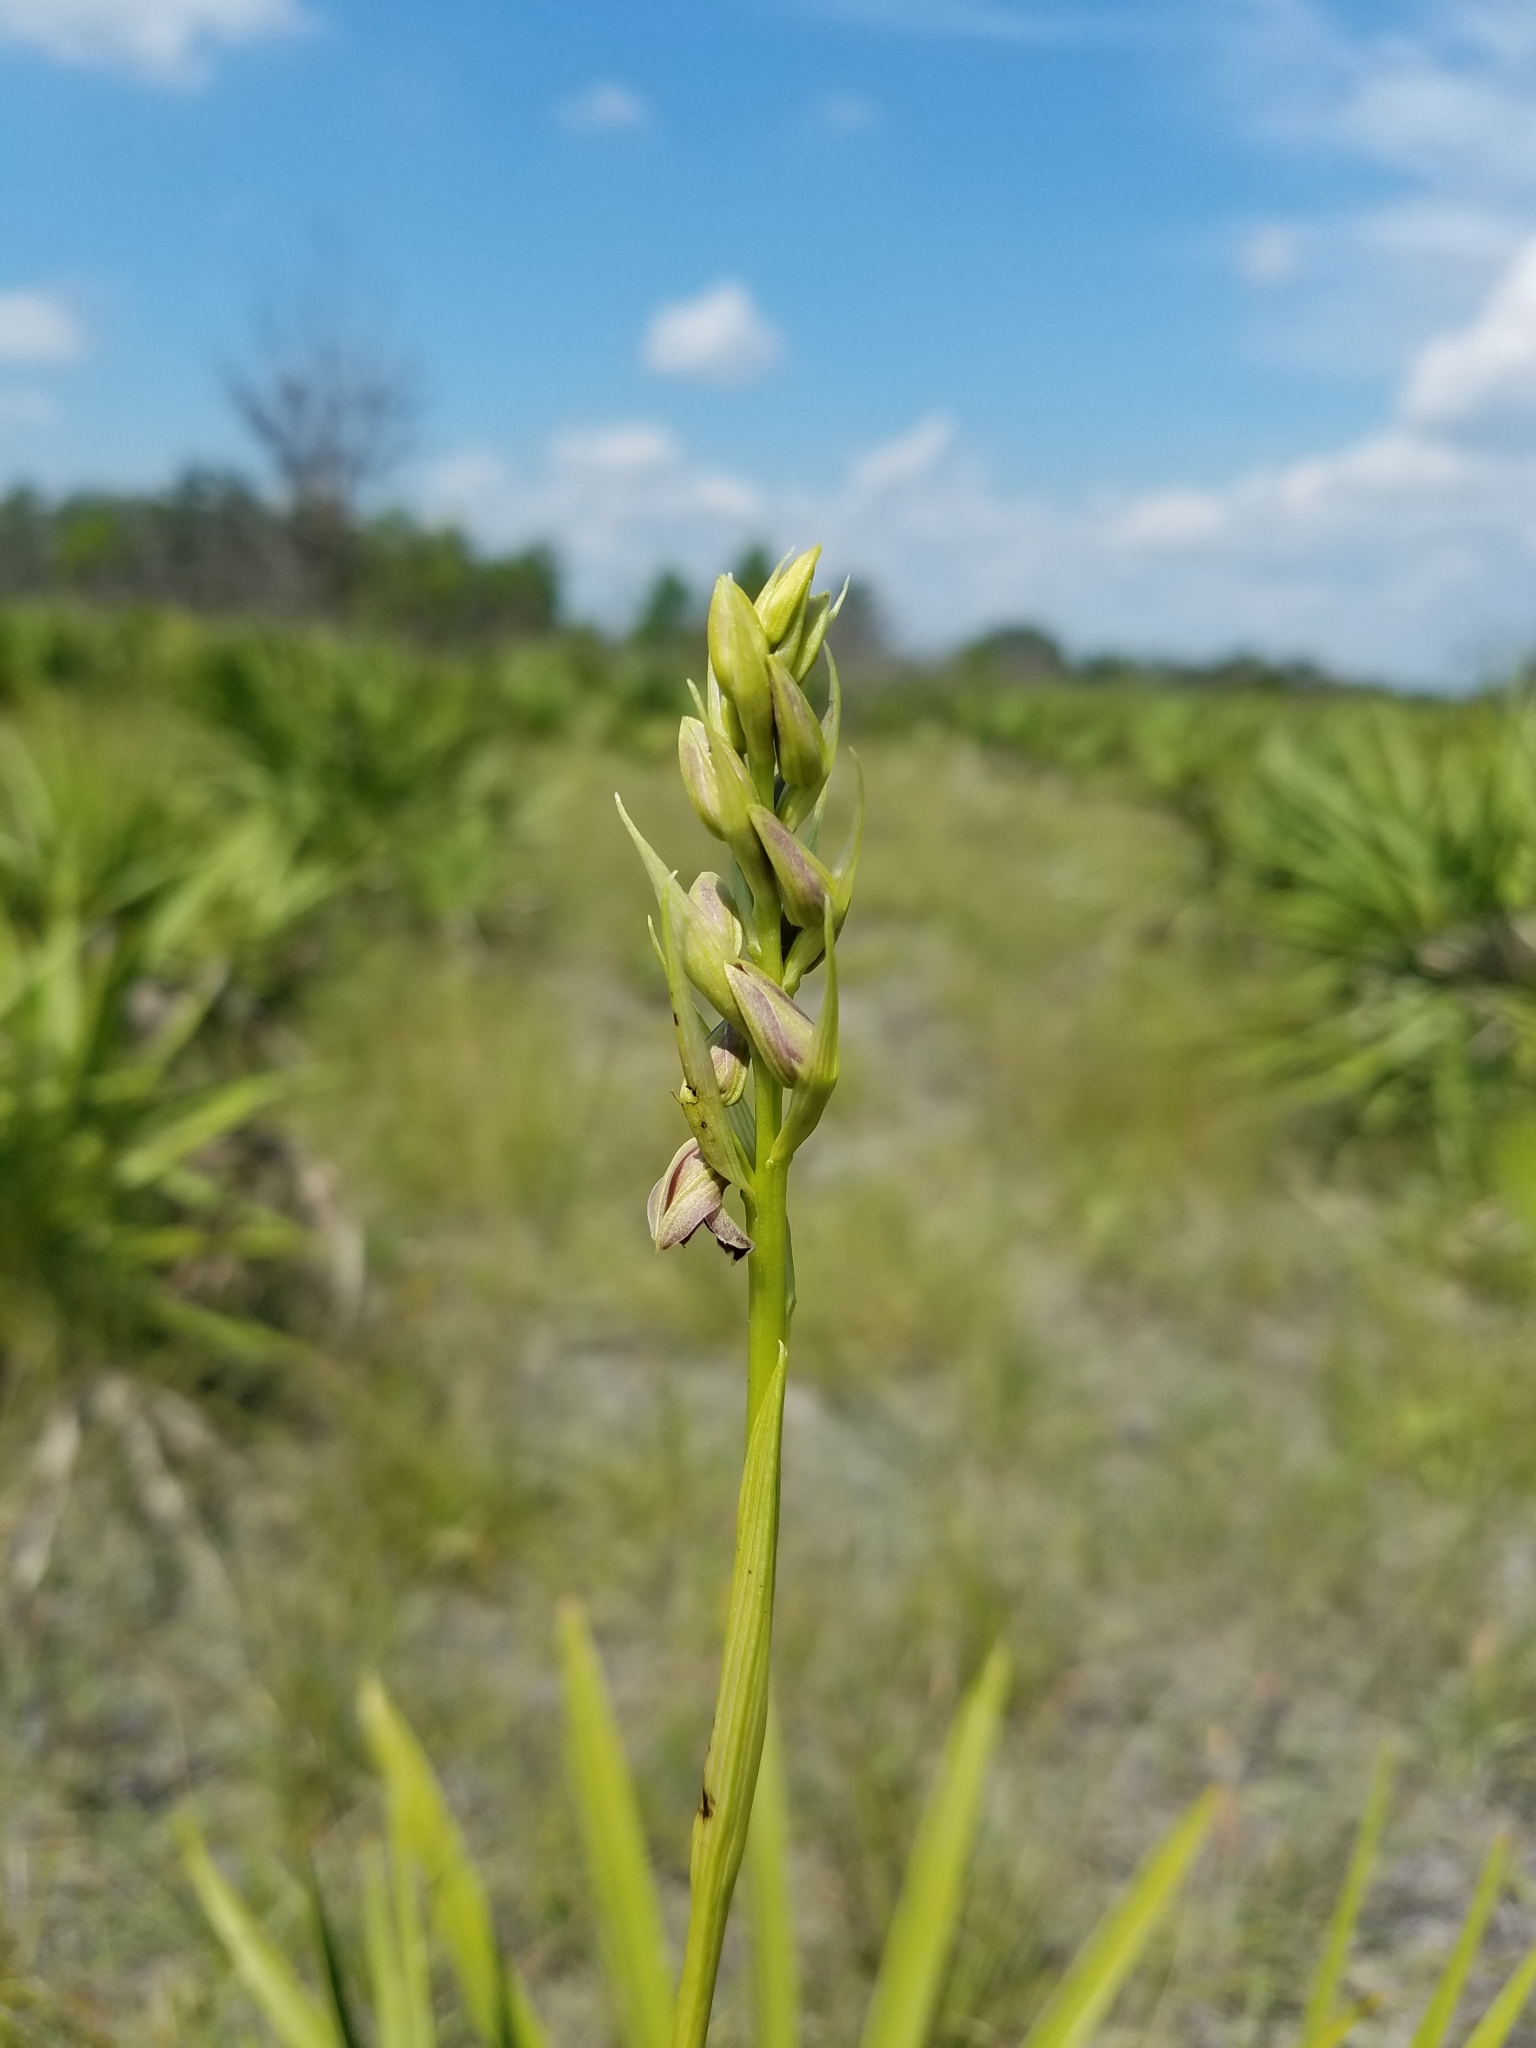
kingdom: Plantae
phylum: Tracheophyta
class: Liliopsida
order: Asparagales
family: Orchidaceae
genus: Eulophia
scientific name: Eulophia ecristata
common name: Giant orchid
